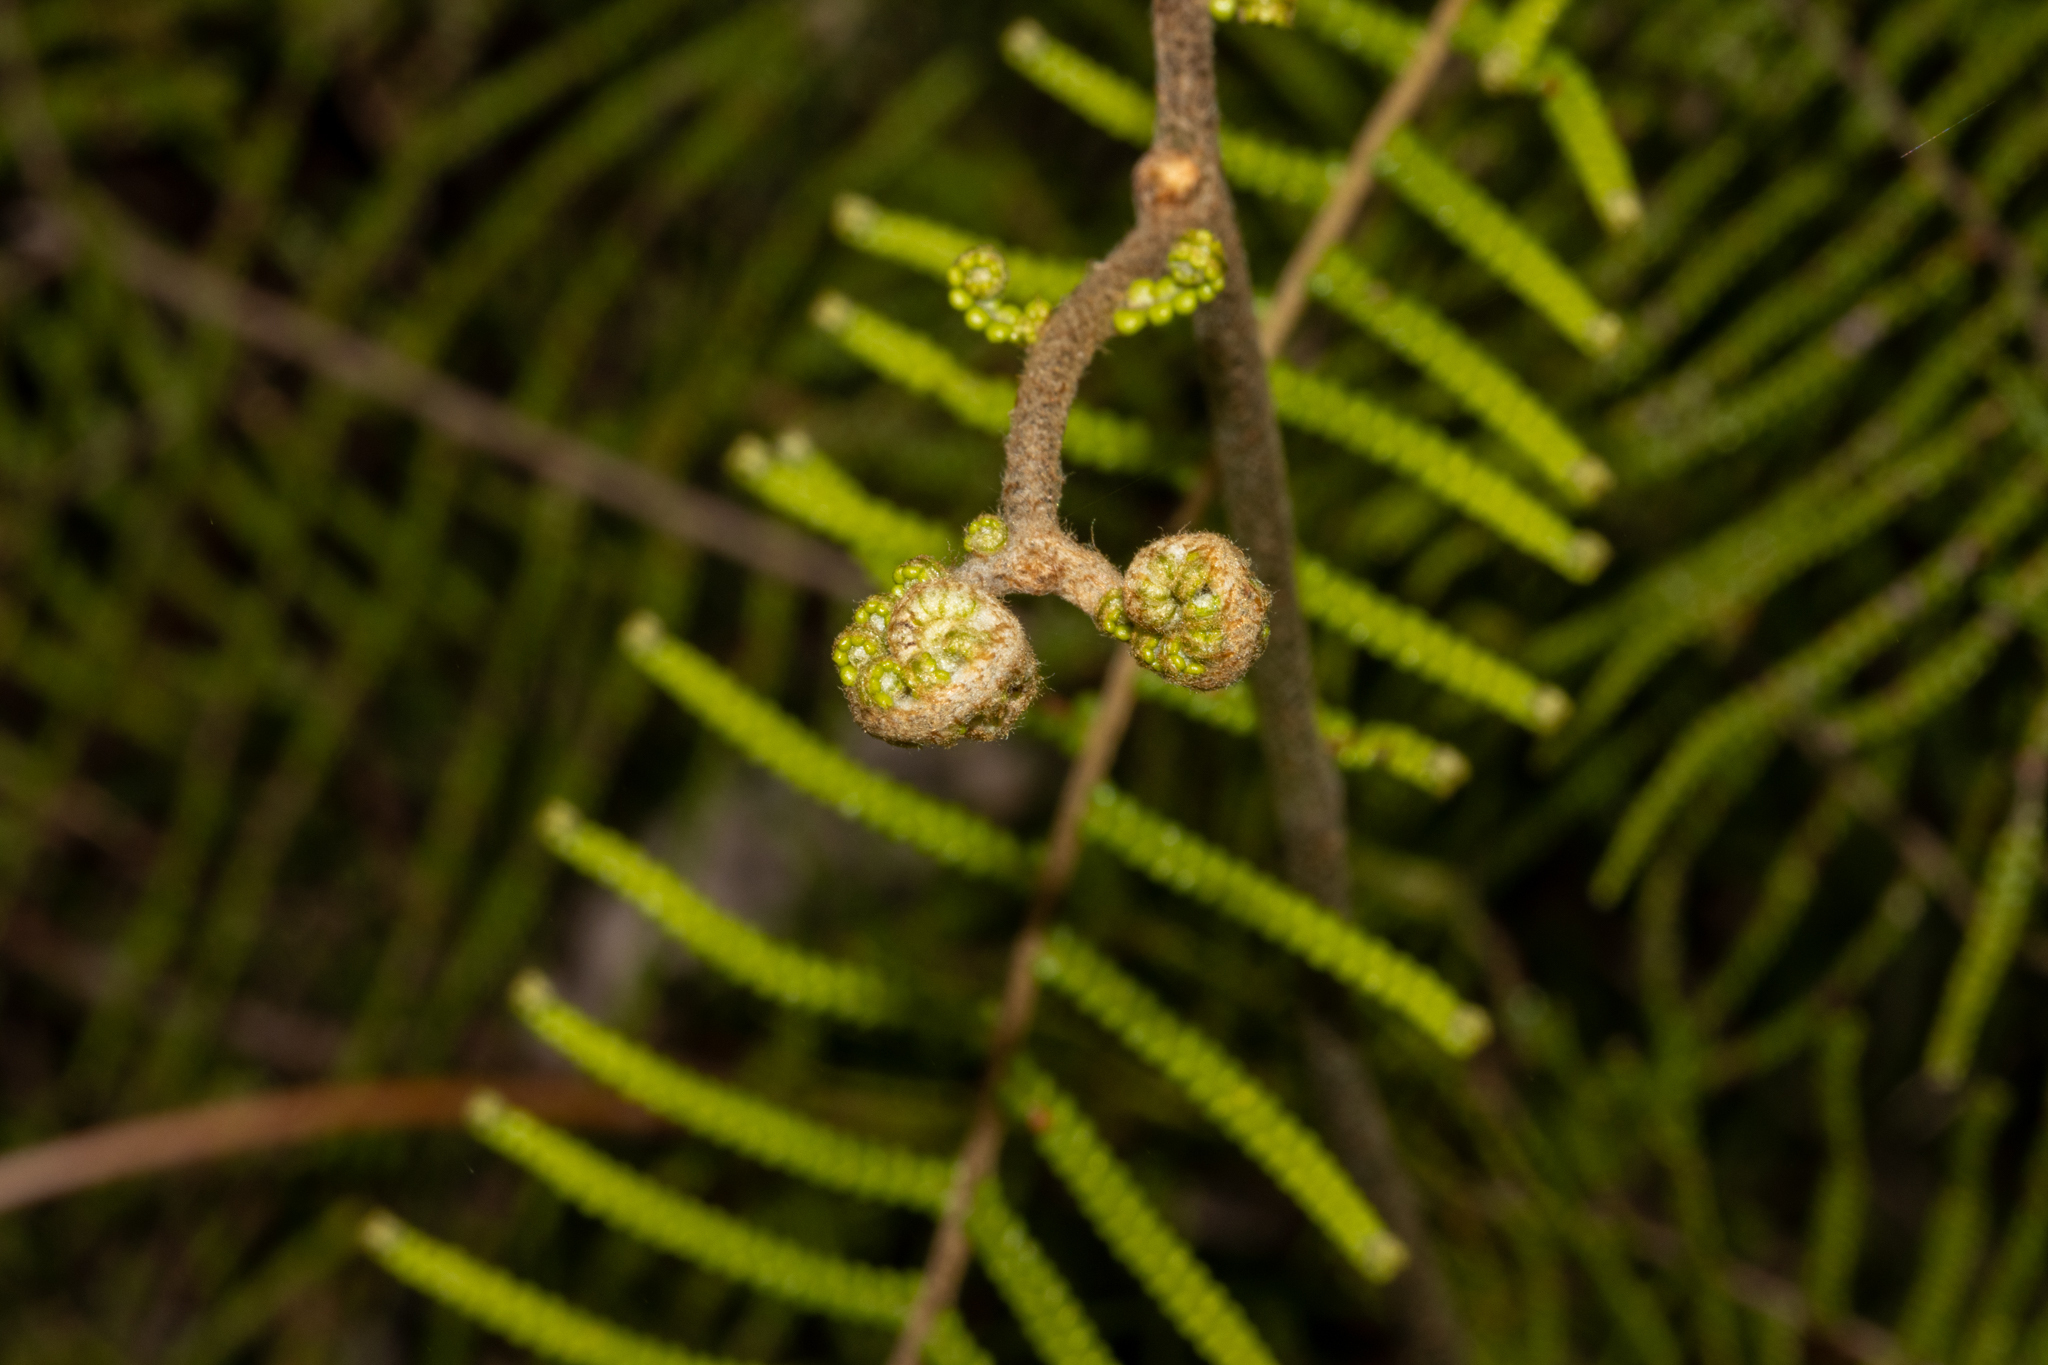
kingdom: Plantae
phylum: Tracheophyta
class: Polypodiopsida
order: Gleicheniales
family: Gleicheniaceae
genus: Gleichenia
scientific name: Gleichenia dicarpa
